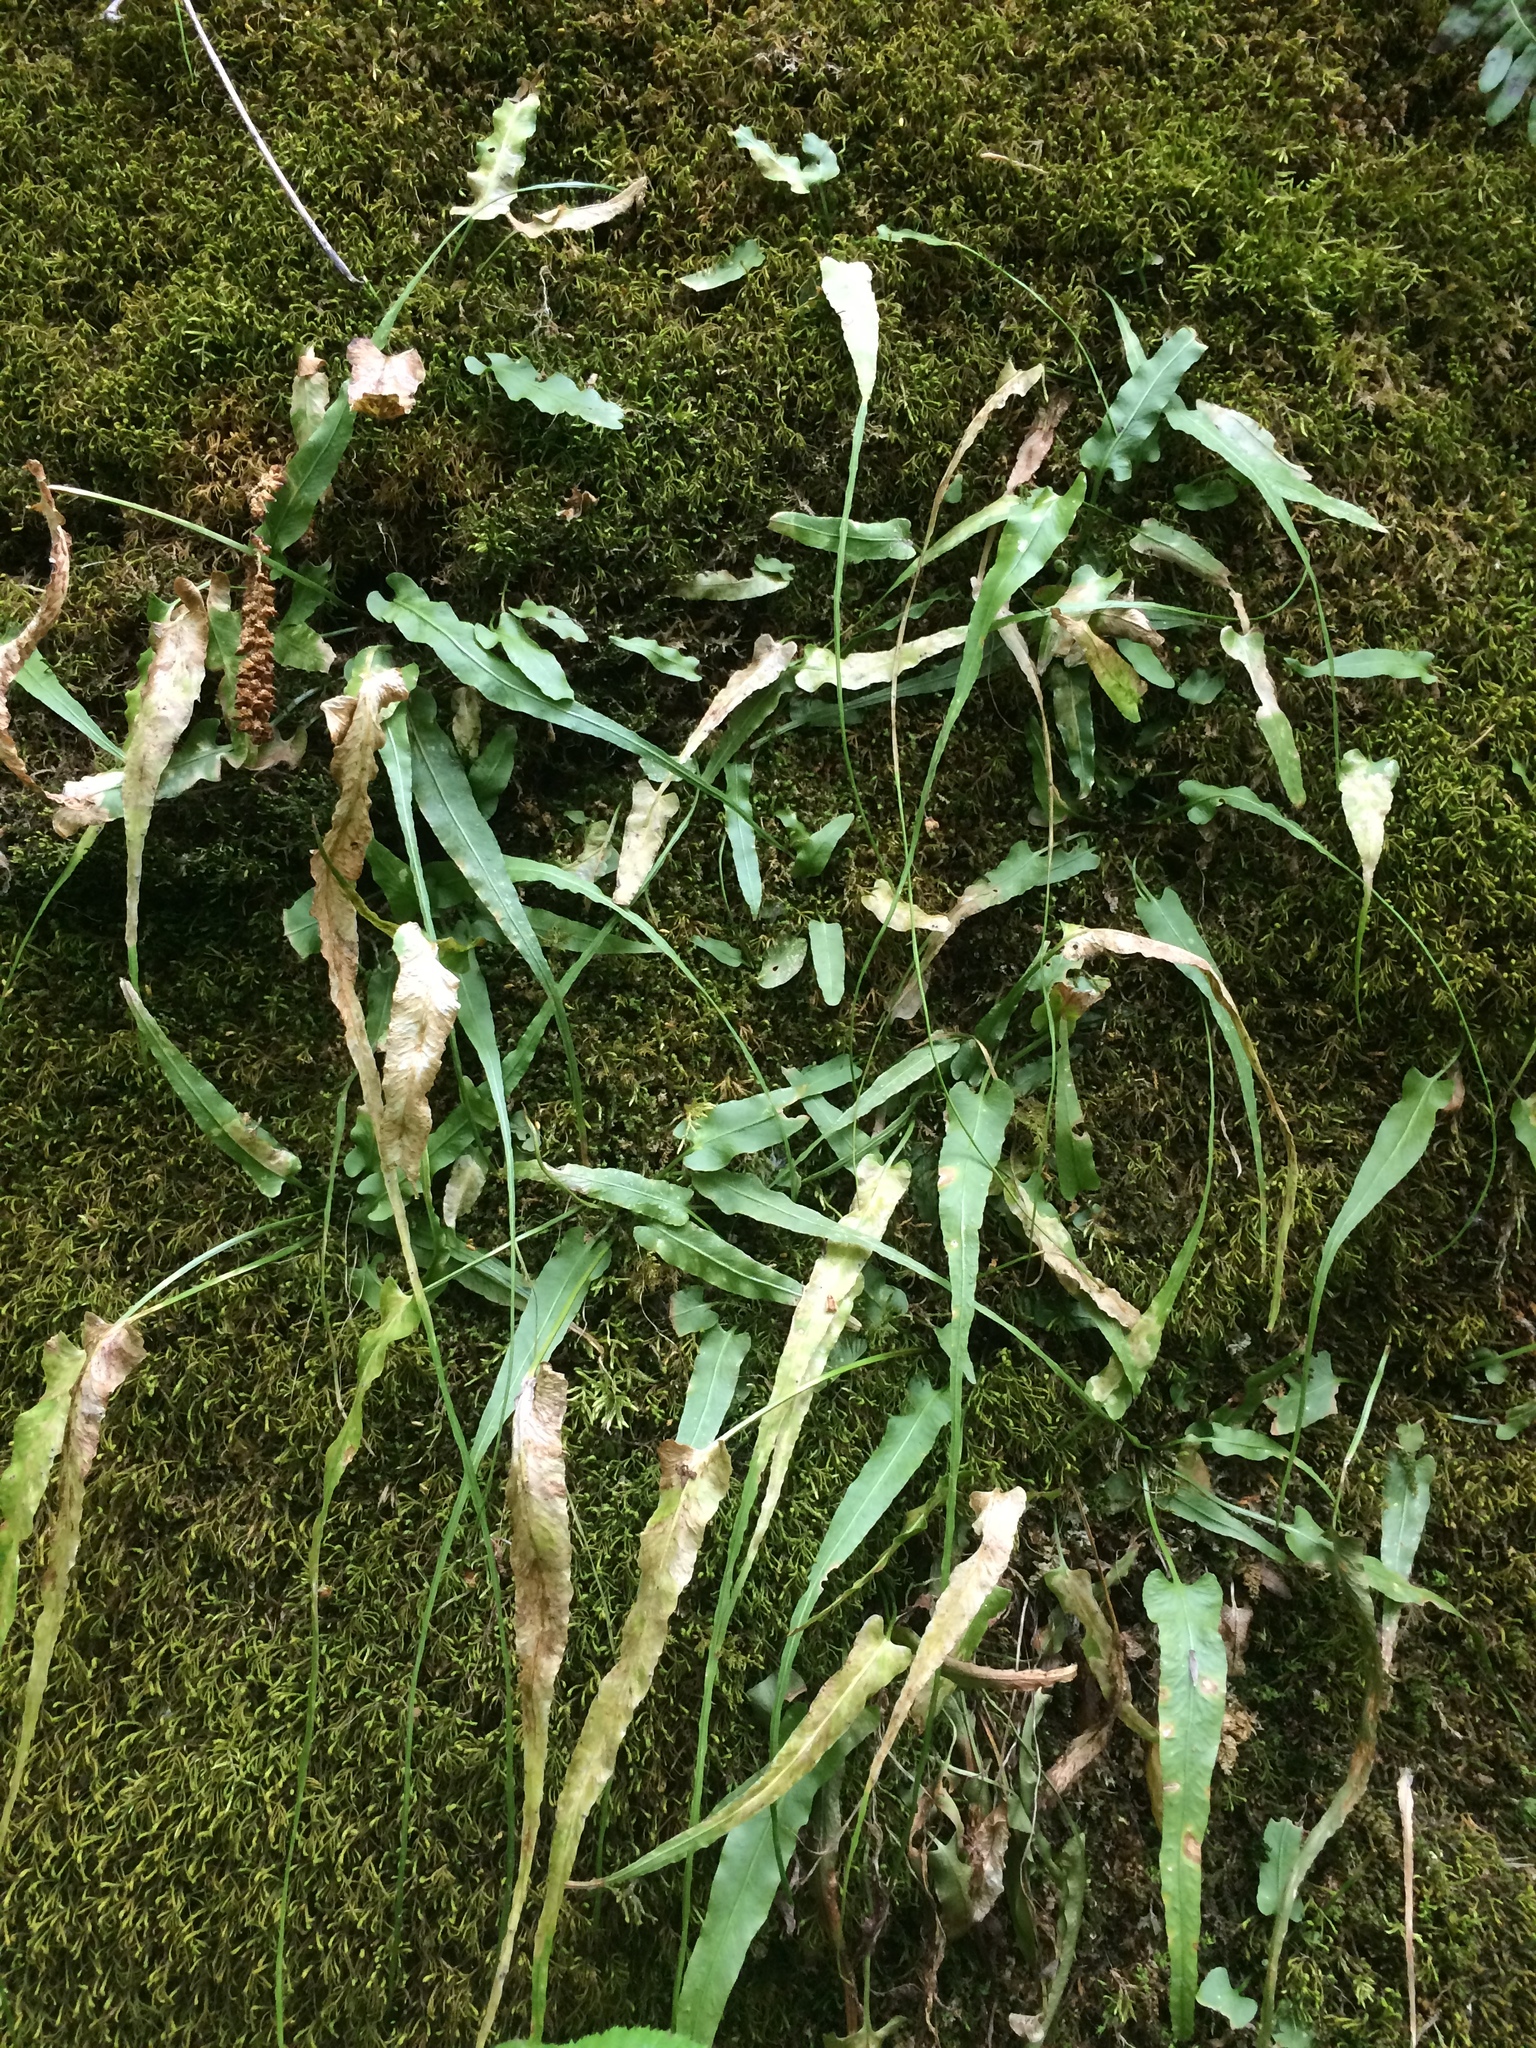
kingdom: Plantae
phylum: Tracheophyta
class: Polypodiopsida
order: Polypodiales
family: Aspleniaceae
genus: Asplenium
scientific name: Asplenium rhizophyllum
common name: Walking fern
